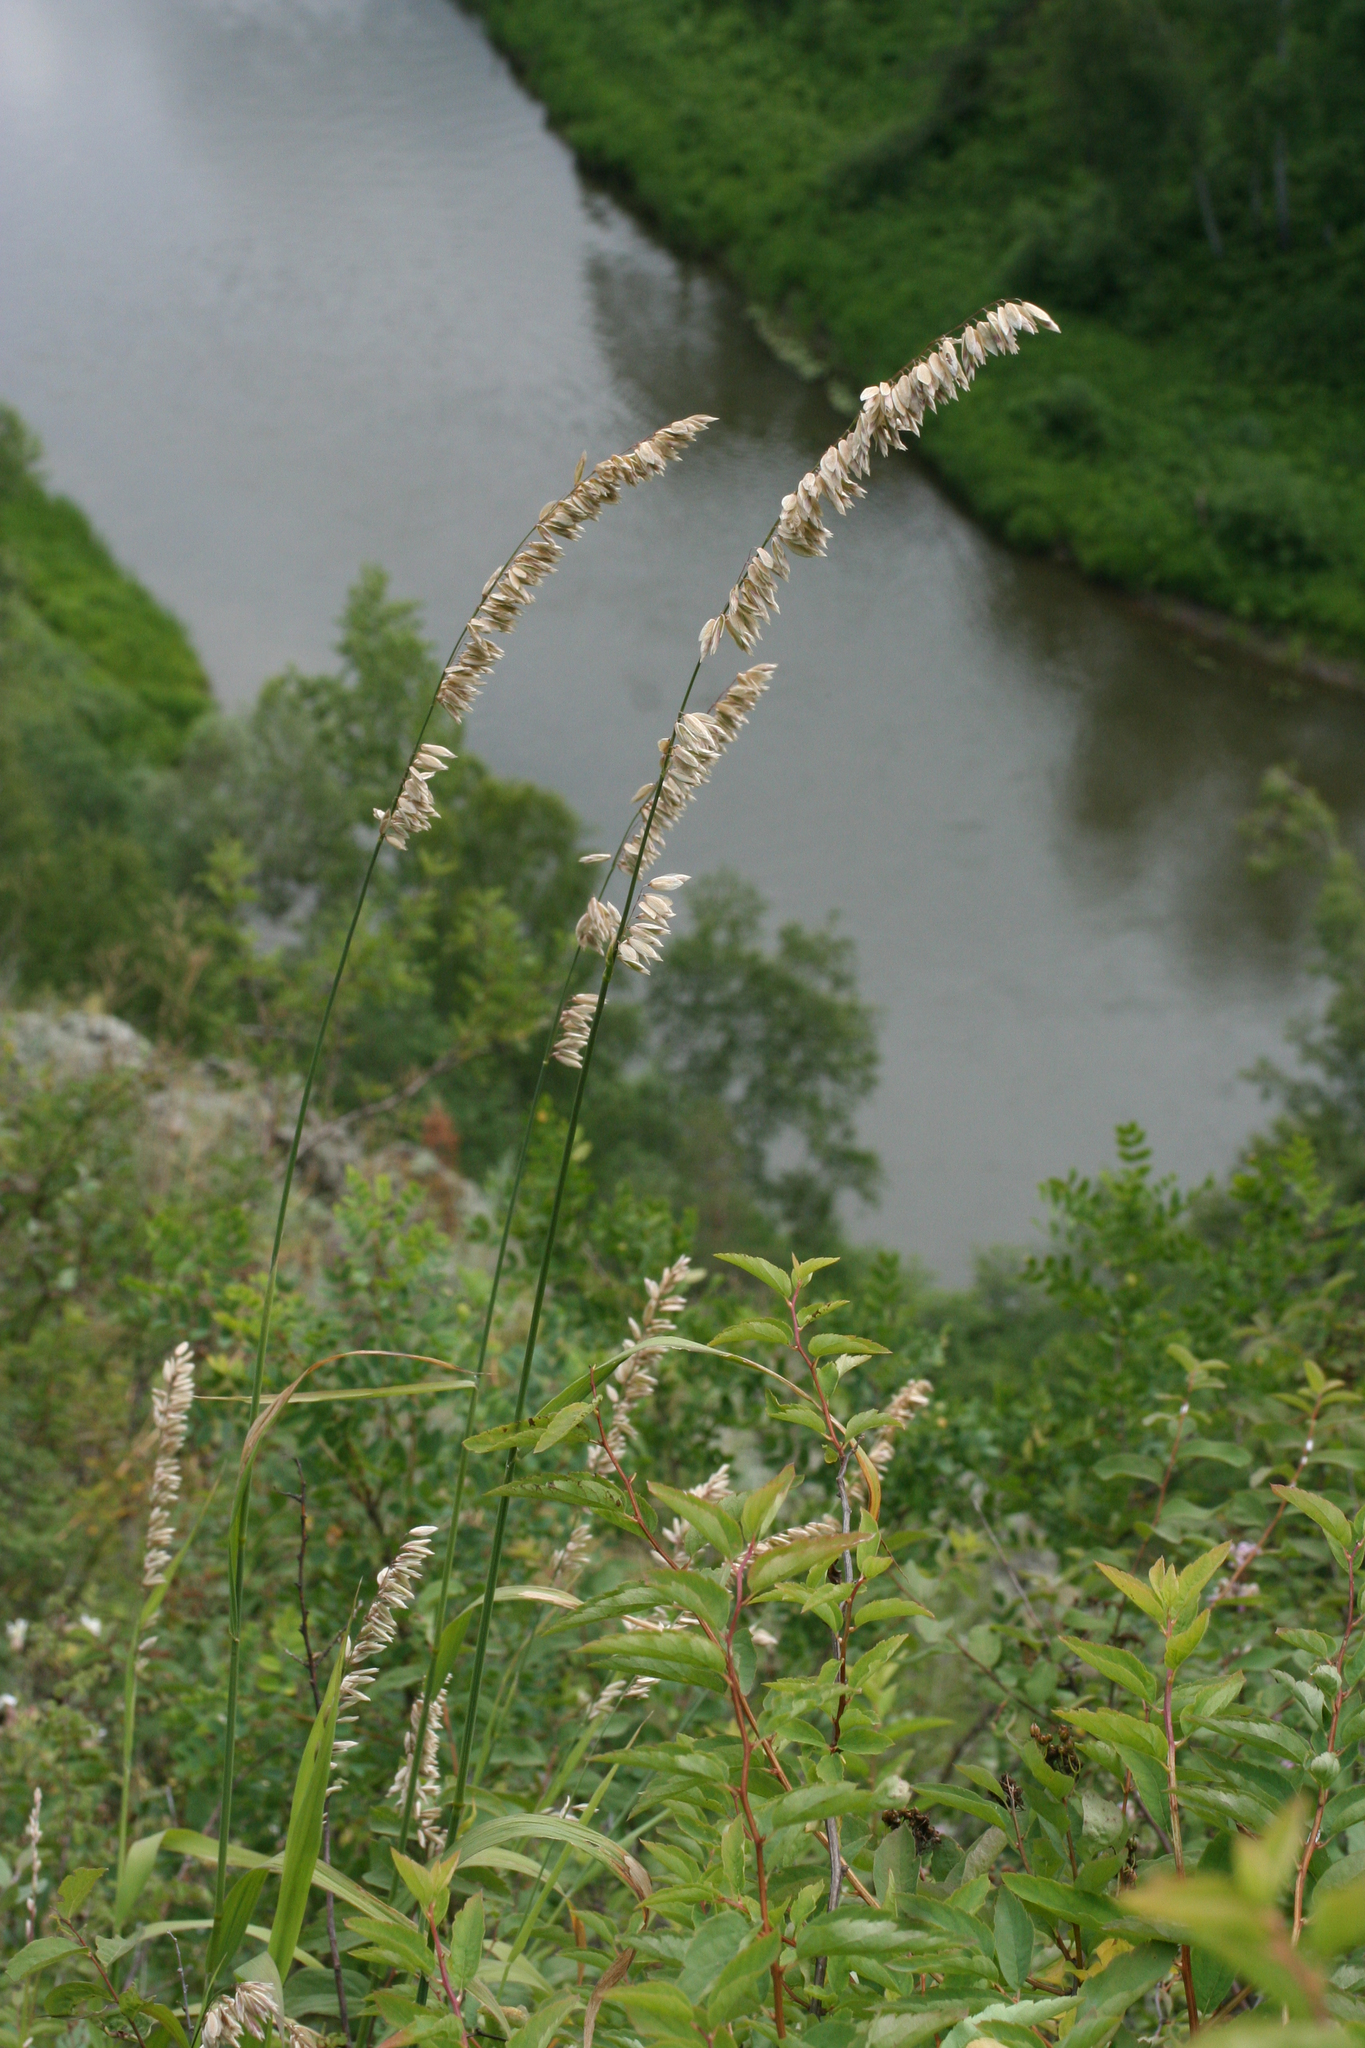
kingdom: Plantae
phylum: Tracheophyta
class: Liliopsida
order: Poales
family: Poaceae
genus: Melica
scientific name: Melica altissima
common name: Siberian melicgrass
